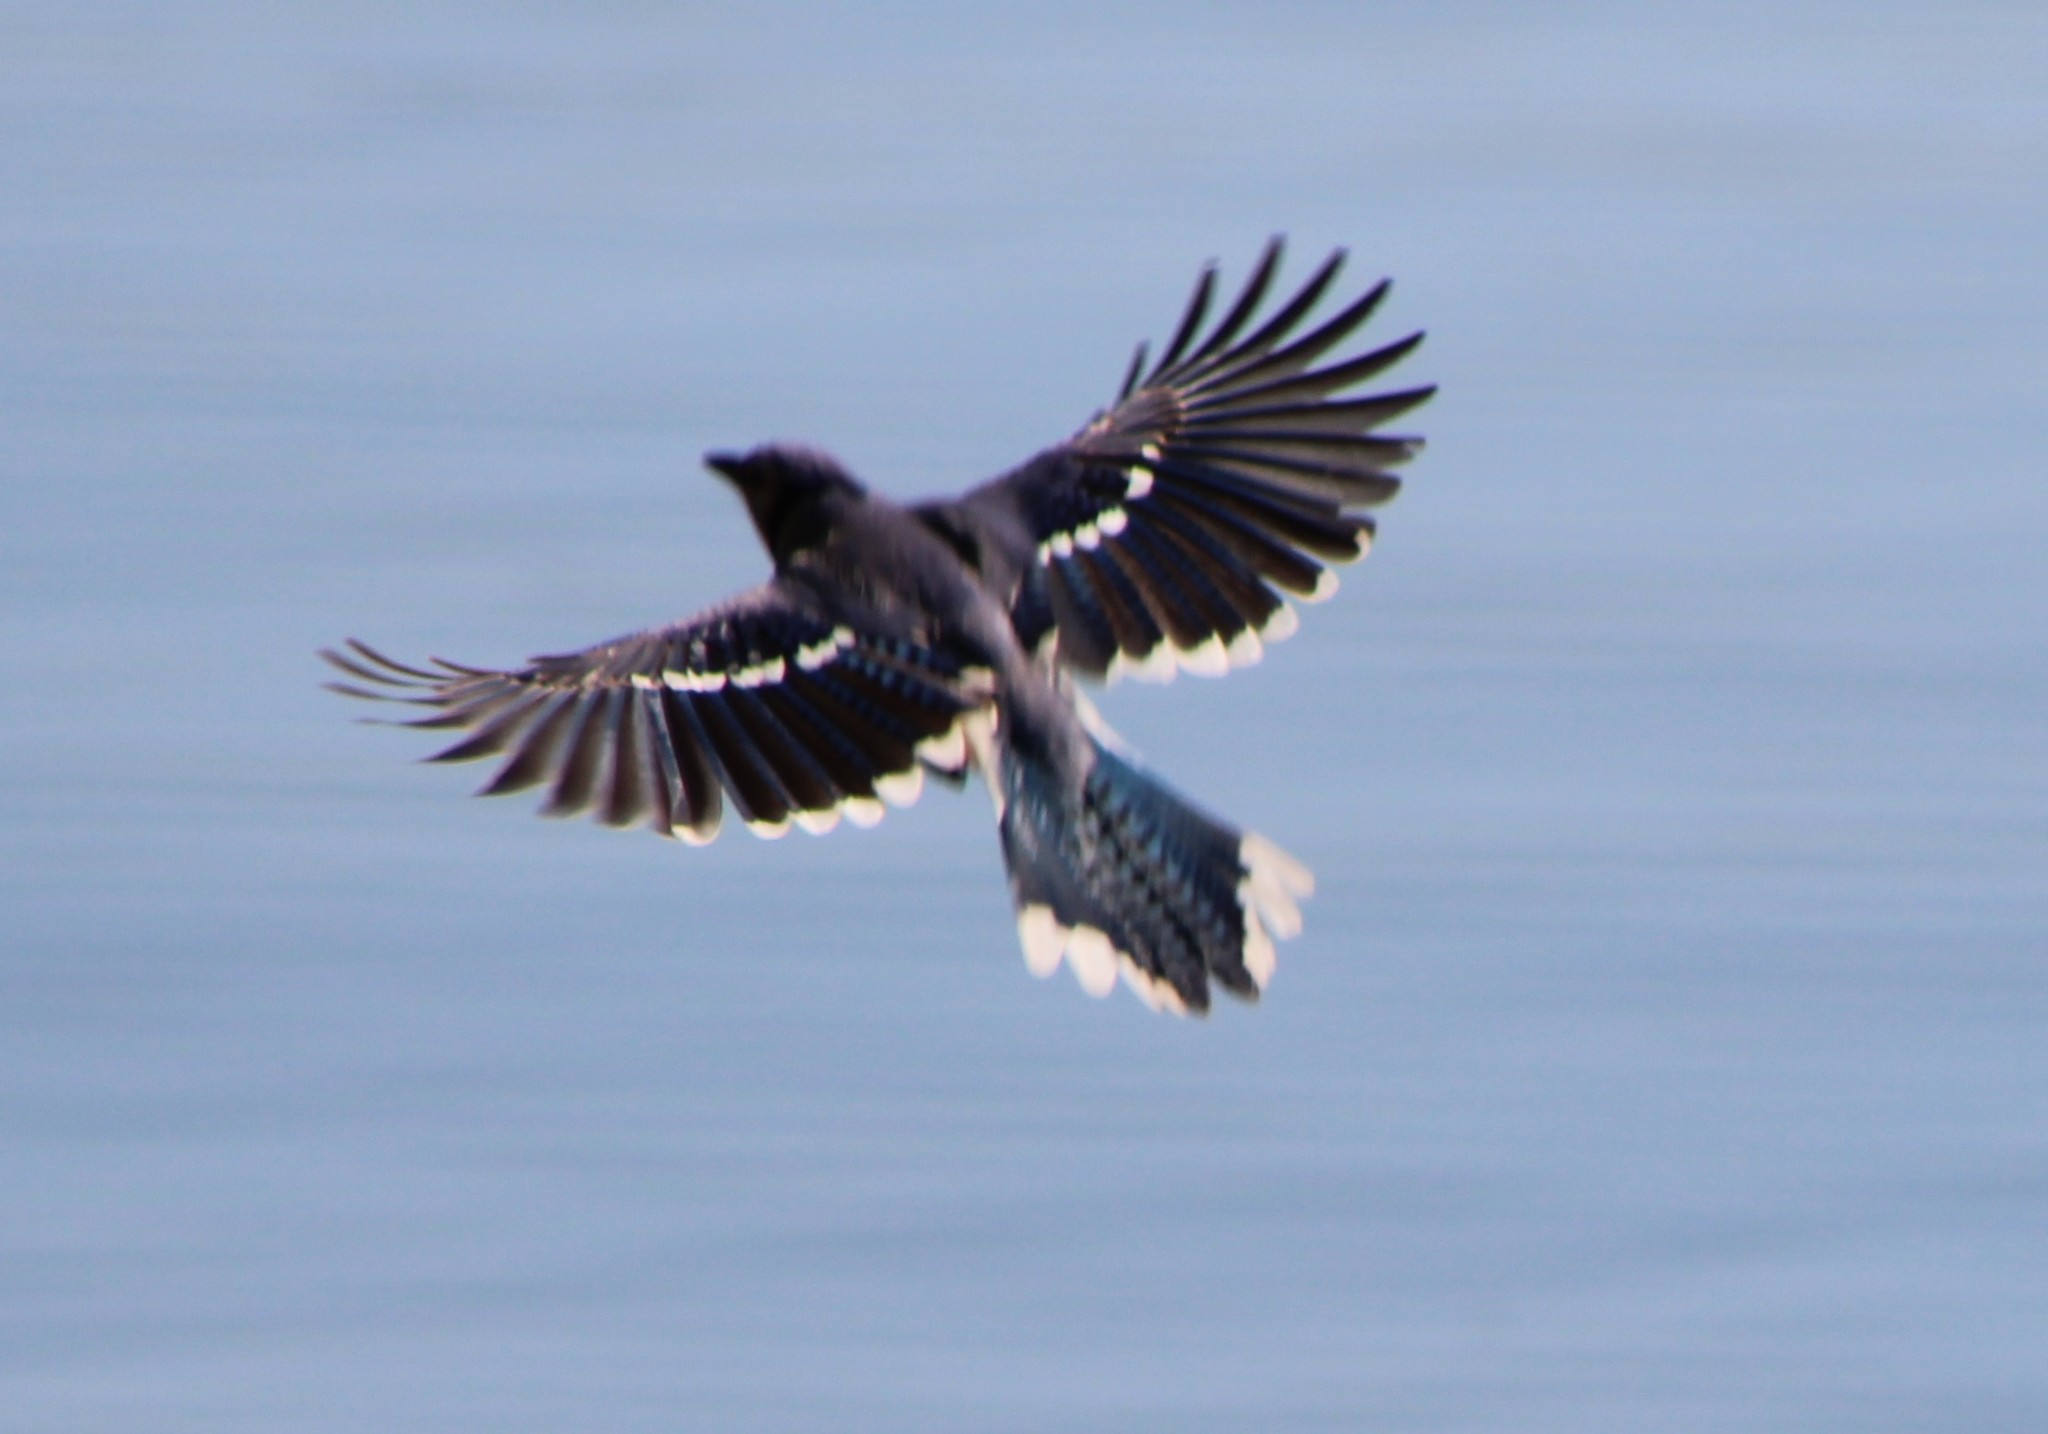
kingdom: Animalia
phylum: Chordata
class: Aves
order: Passeriformes
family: Corvidae
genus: Cyanocitta
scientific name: Cyanocitta cristata
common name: Blue jay
